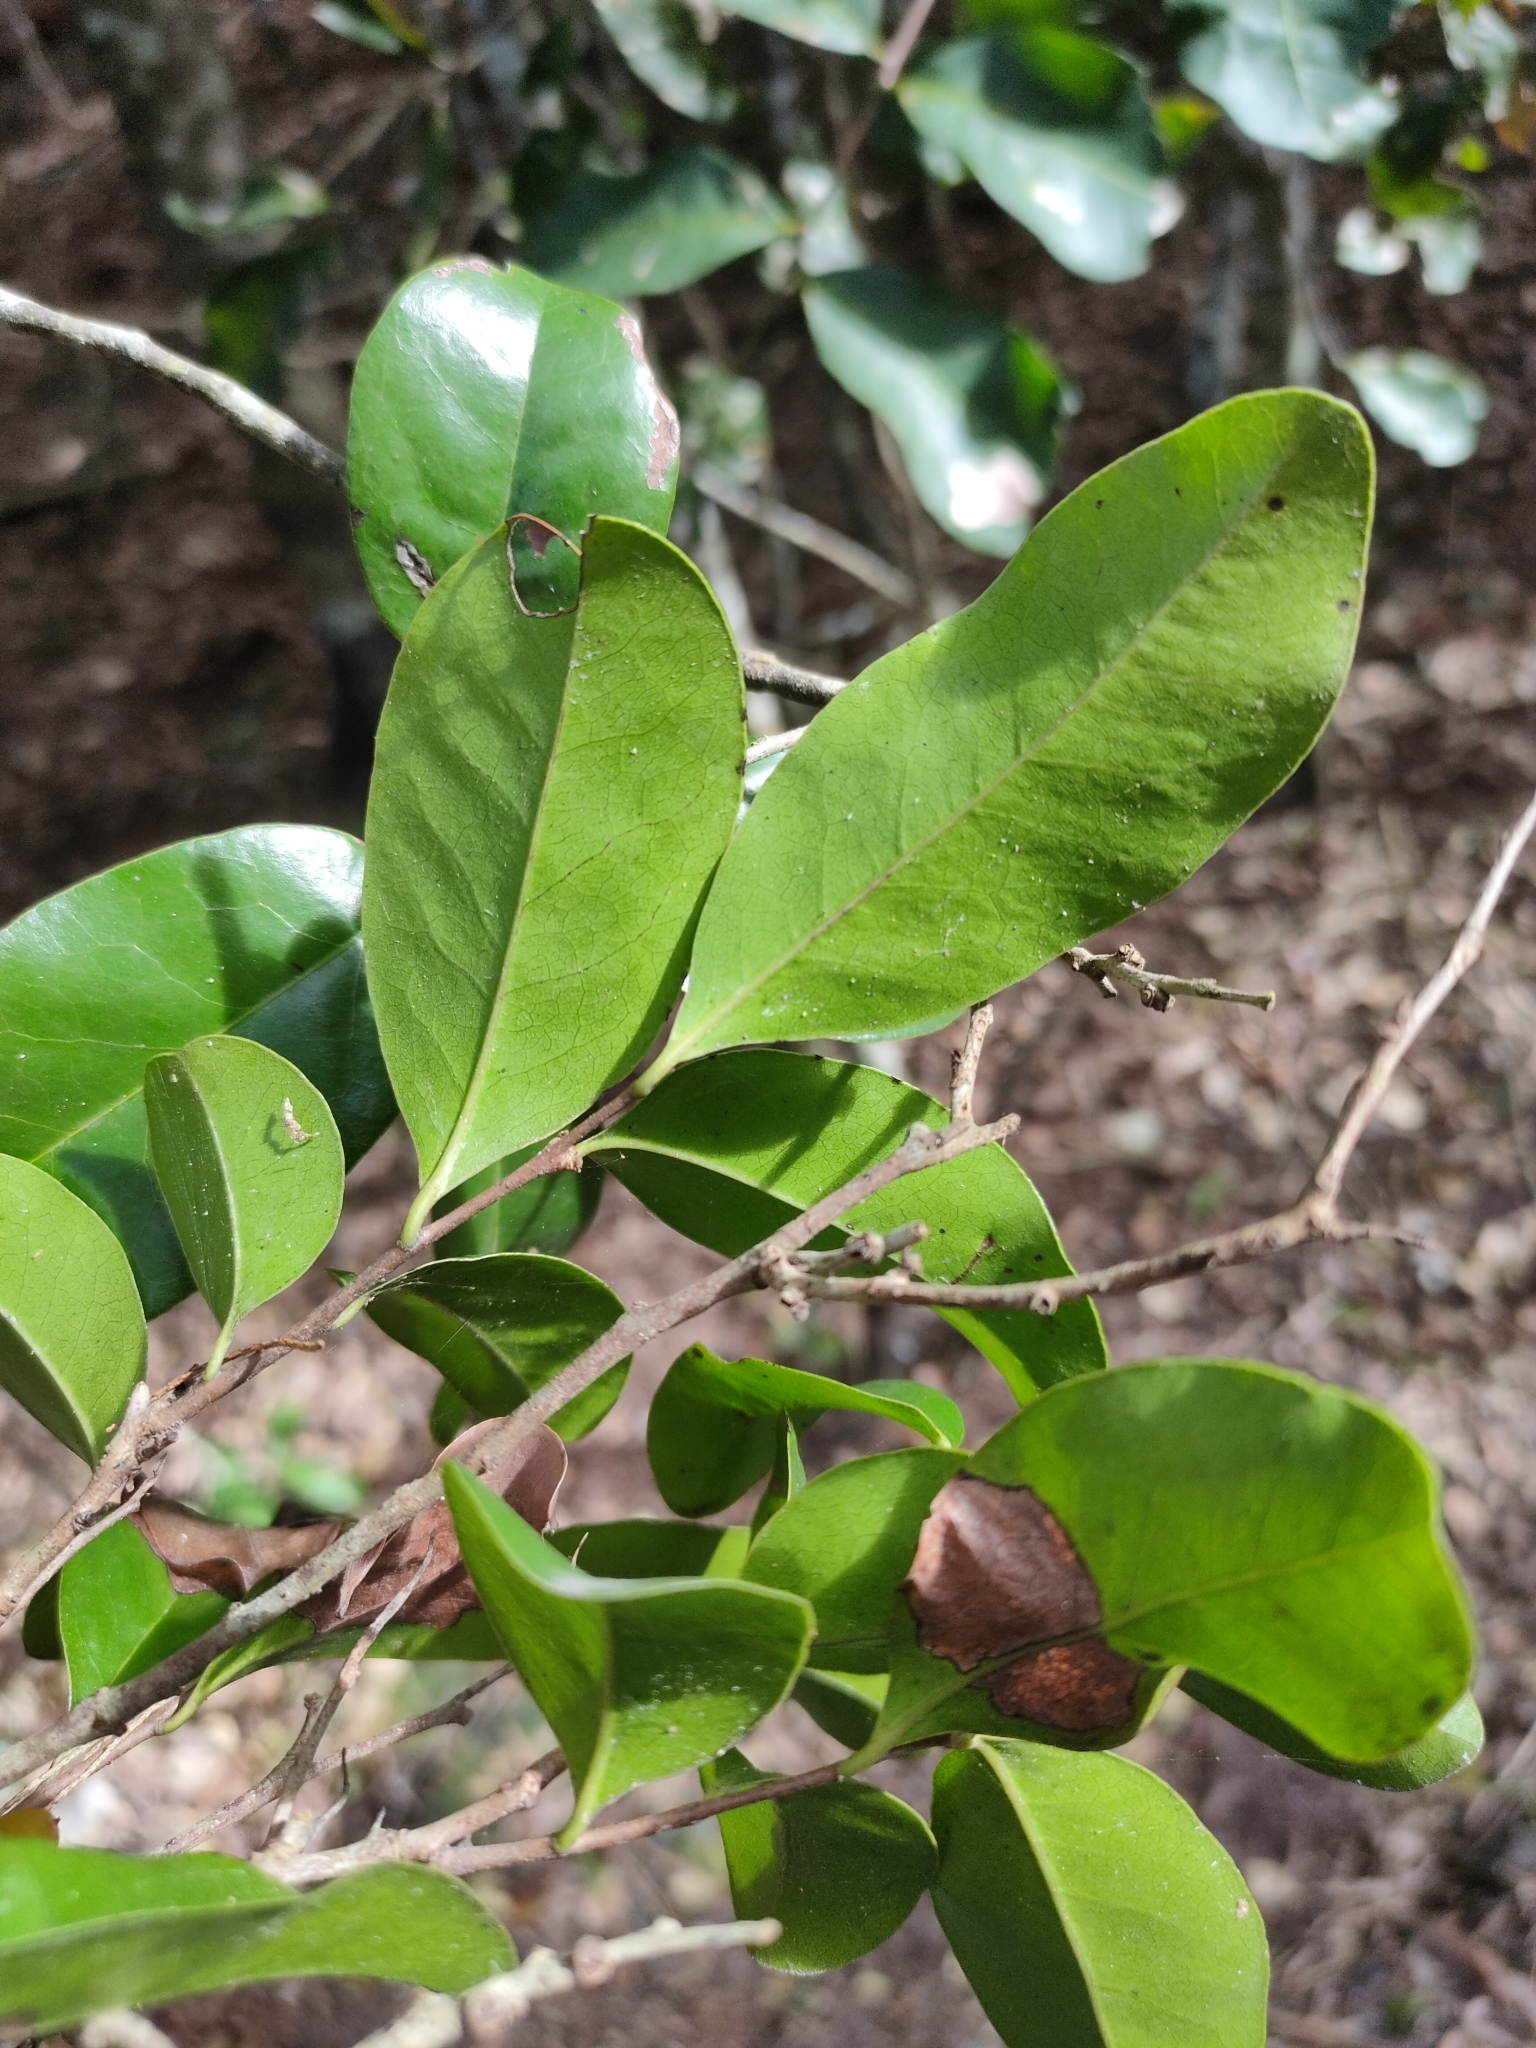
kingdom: Plantae
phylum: Tracheophyta
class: Magnoliopsida
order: Ericales
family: Ebenaceae
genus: Diospyros
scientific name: Diospyros geminata
